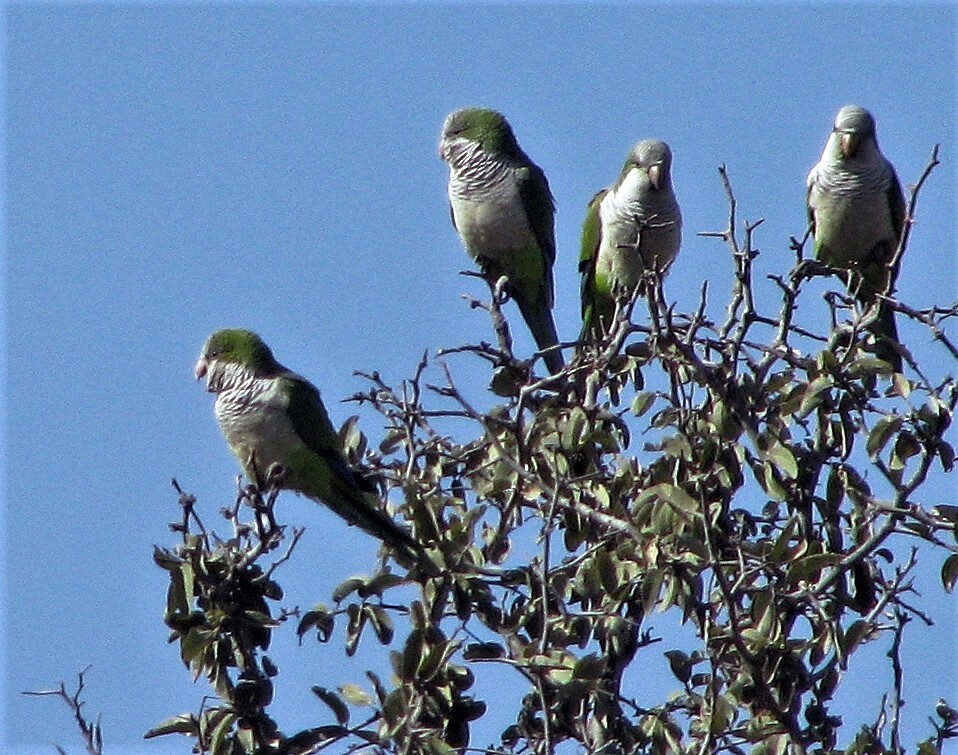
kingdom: Animalia
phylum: Chordata
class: Aves
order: Psittaciformes
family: Psittacidae
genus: Myiopsitta
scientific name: Myiopsitta monachus
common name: Monk parakeet
